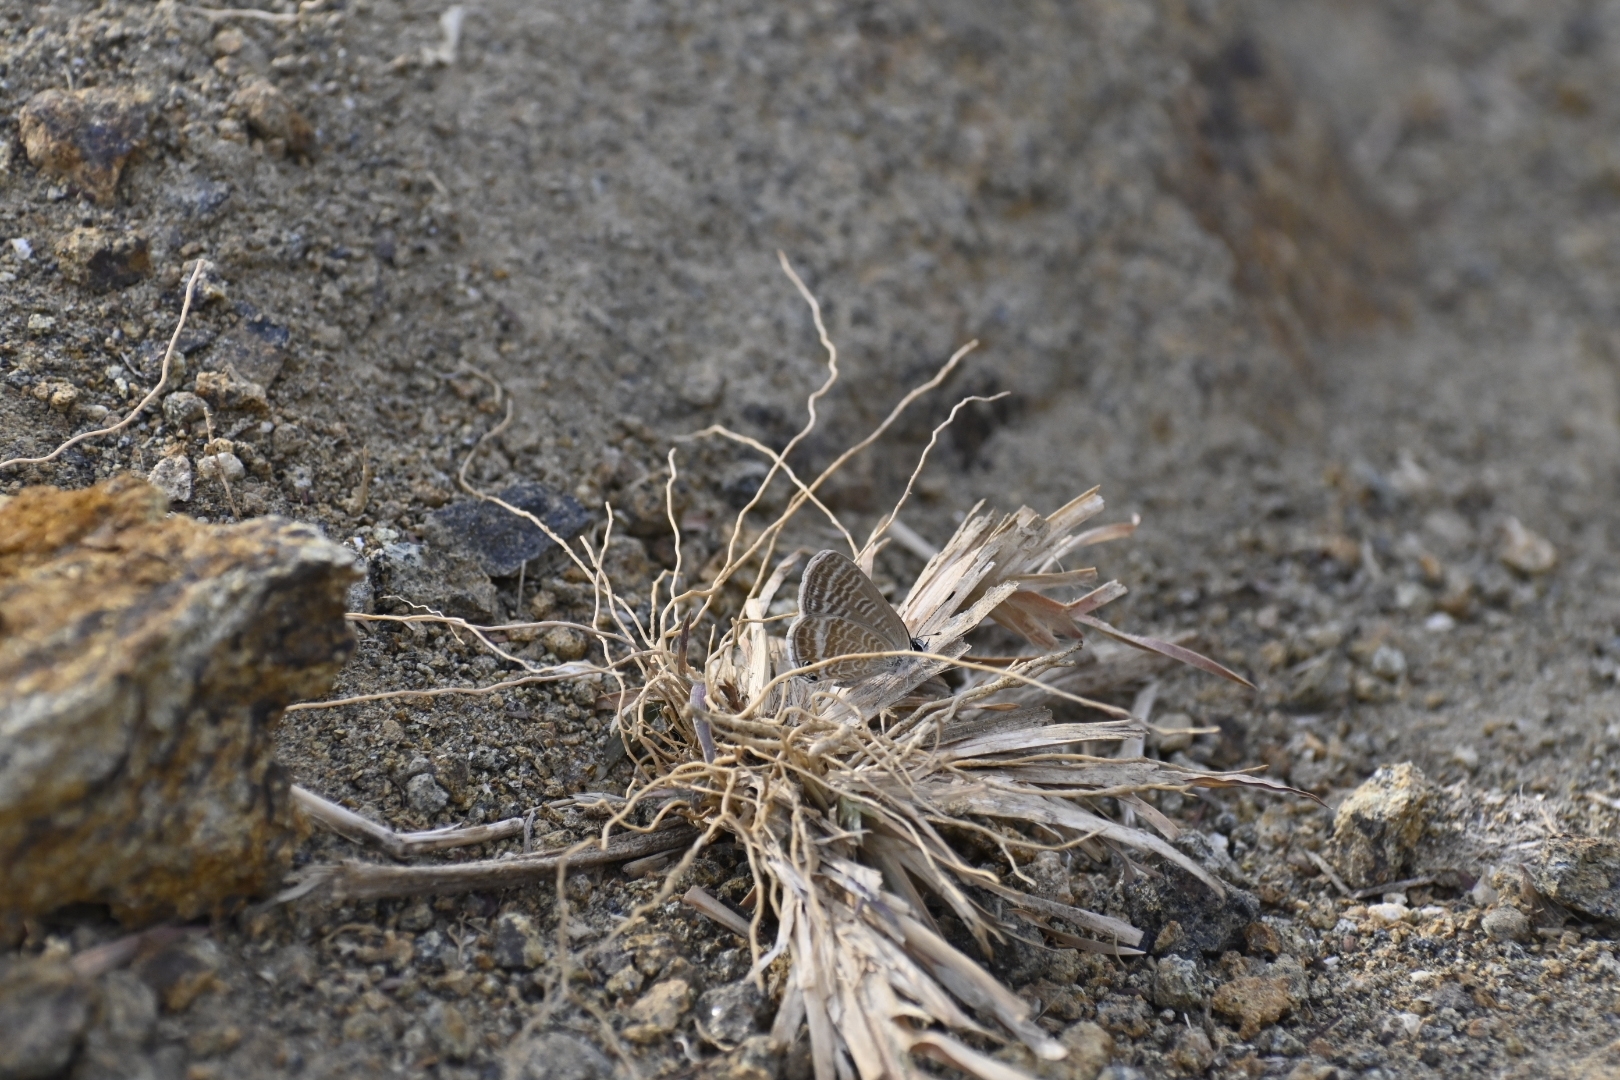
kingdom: Animalia
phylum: Arthropoda
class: Insecta
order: Lepidoptera
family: Lycaenidae
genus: Lampides
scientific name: Lampides boeticus
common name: Long-tailed blue
